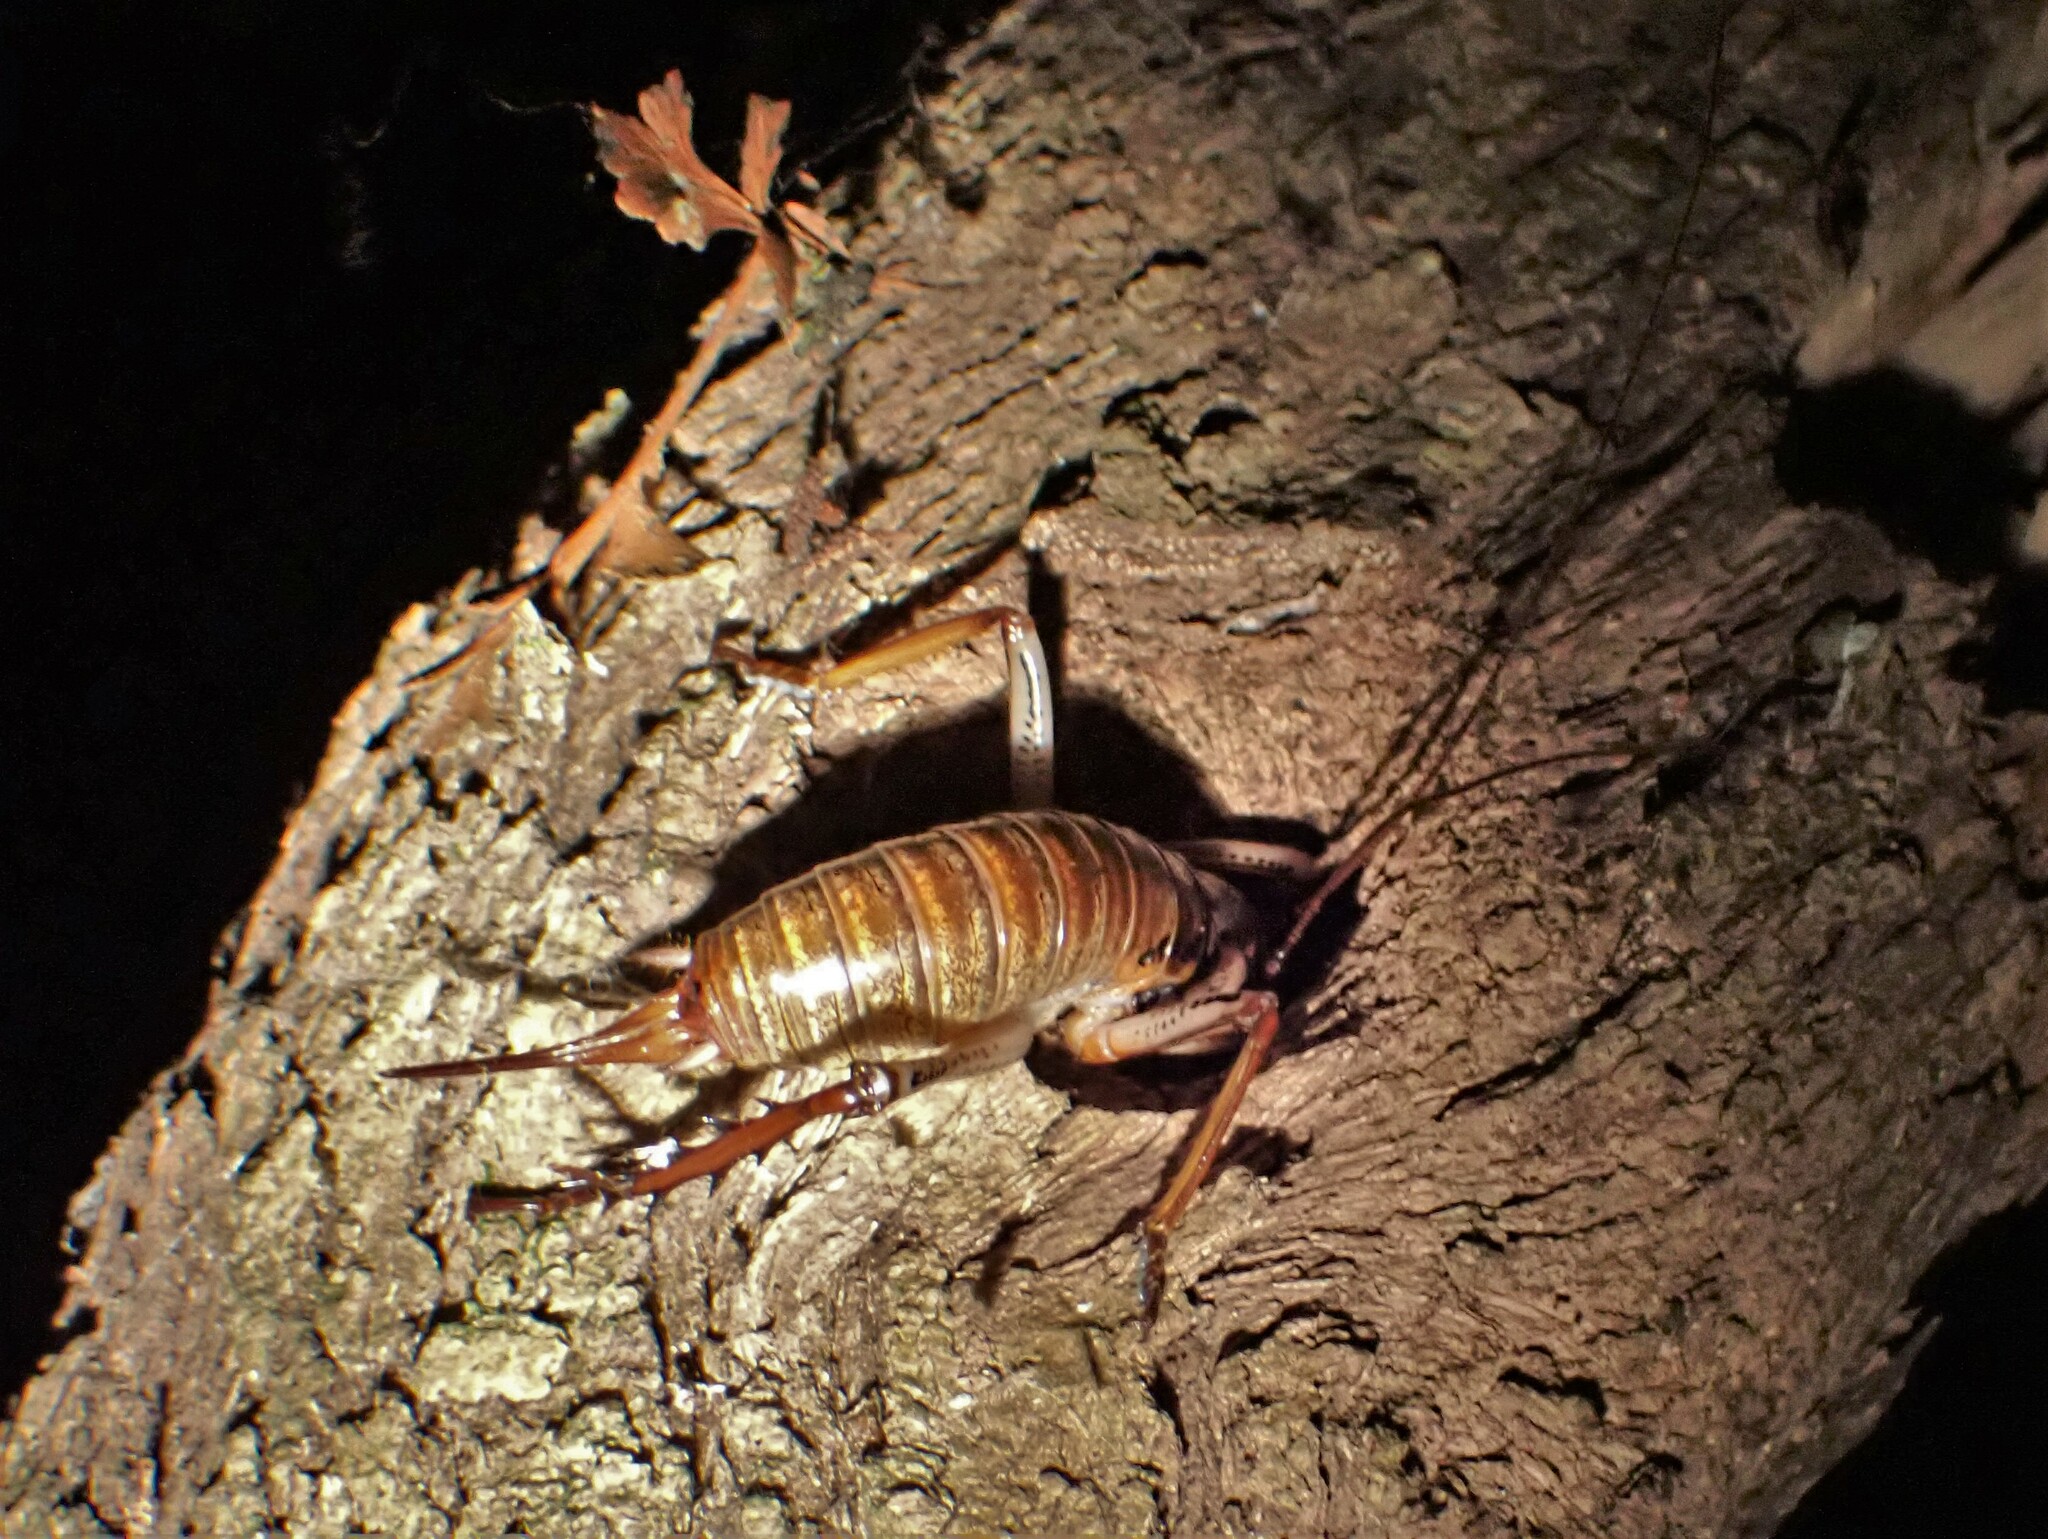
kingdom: Animalia
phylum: Arthropoda
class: Insecta
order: Orthoptera
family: Anostostomatidae
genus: Hemideina
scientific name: Hemideina thoracica
